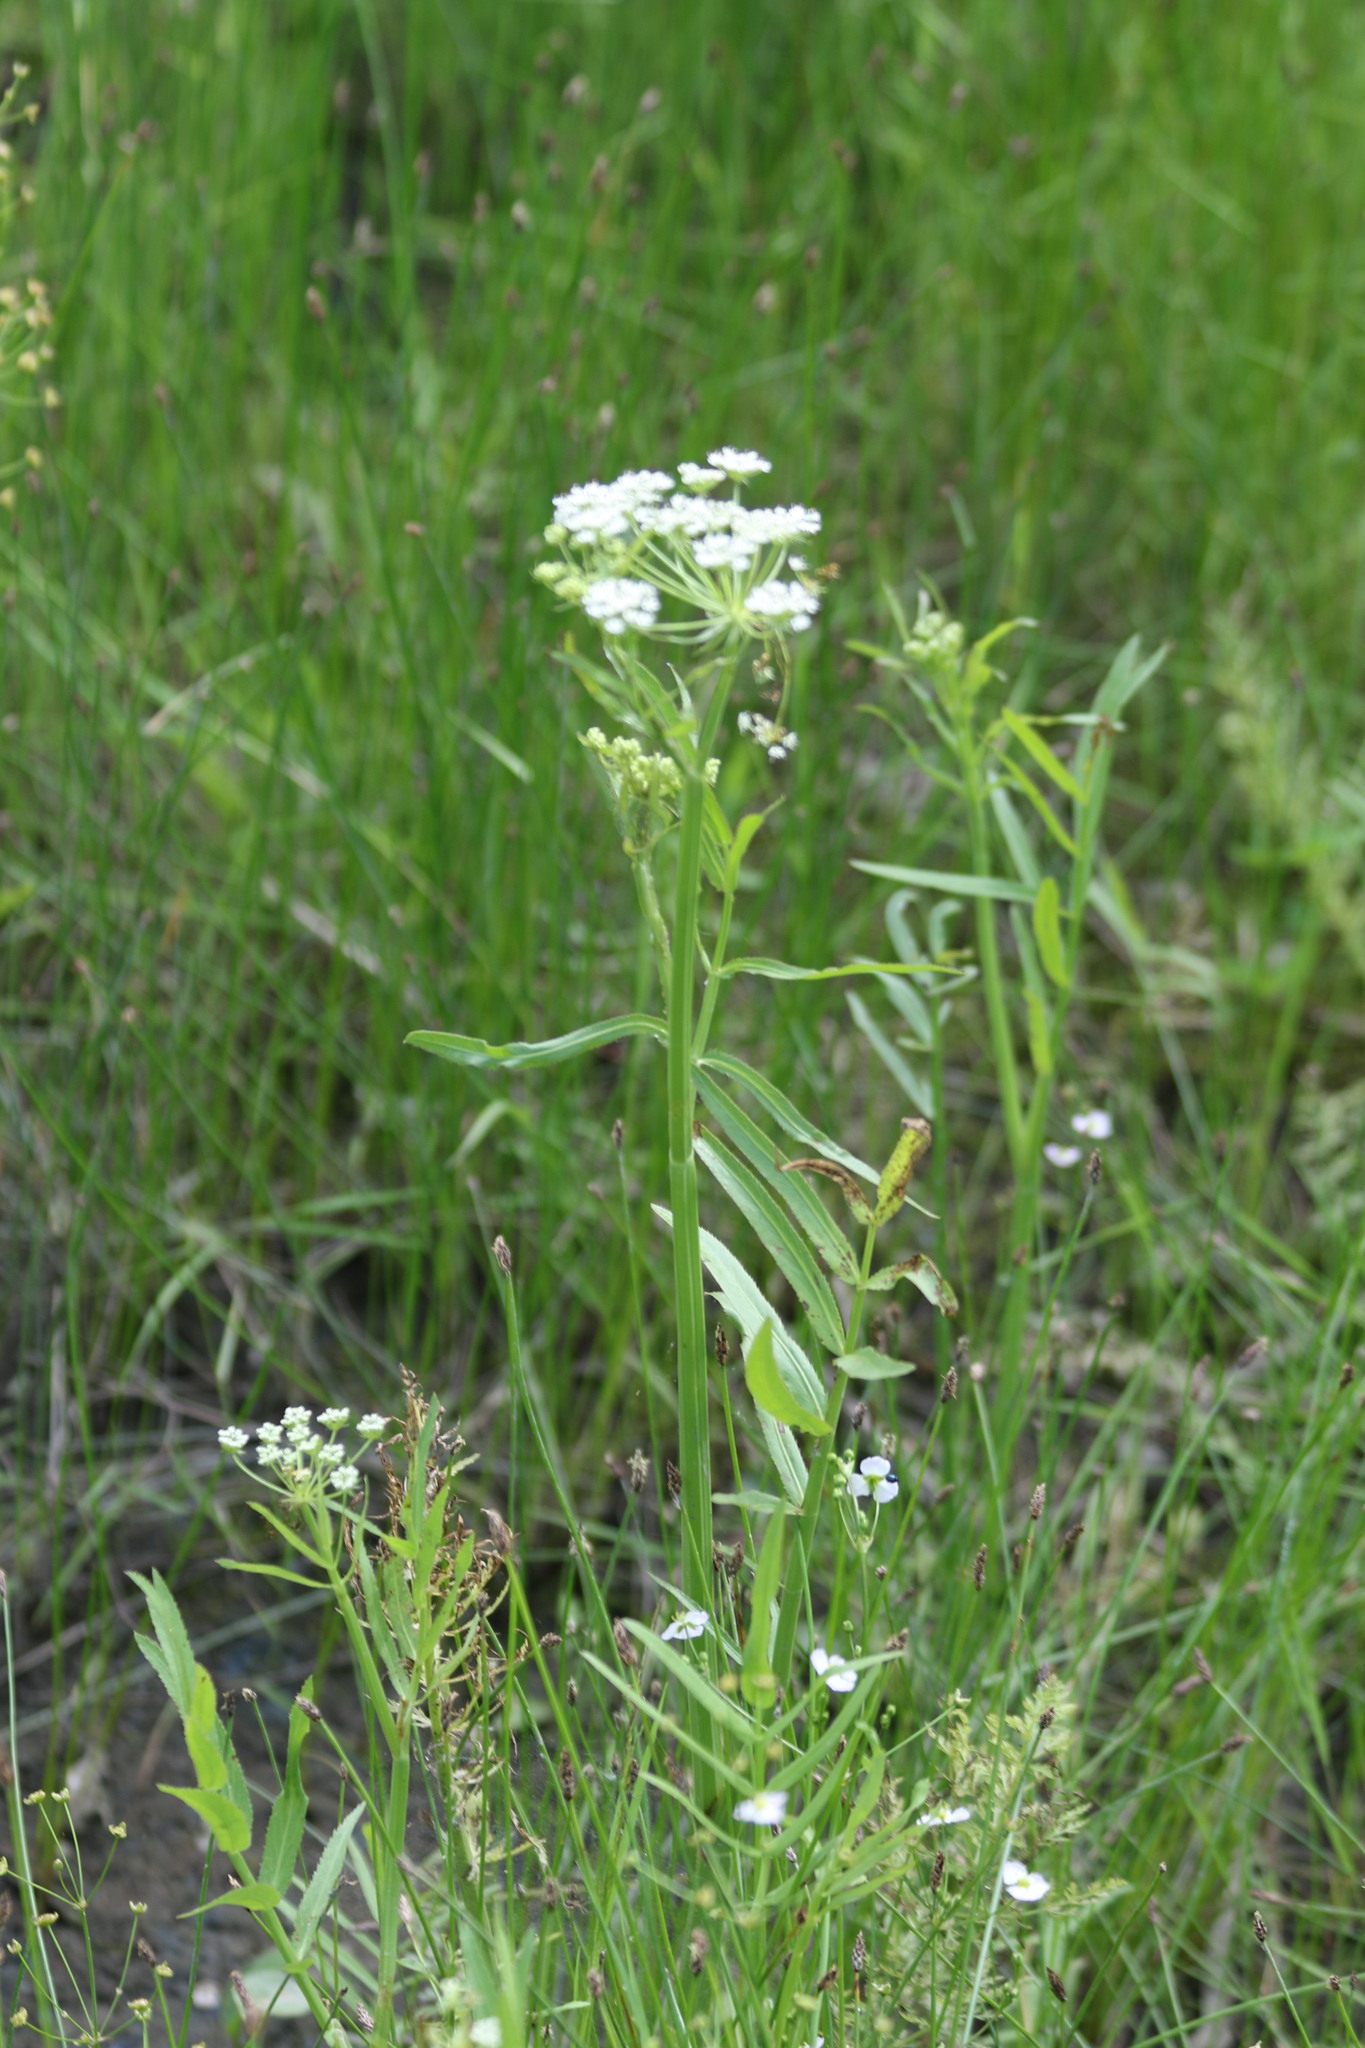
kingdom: Plantae
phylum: Tracheophyta
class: Magnoliopsida
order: Apiales
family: Apiaceae
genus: Sium
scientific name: Sium latifolium
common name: Greater water-parsnip
